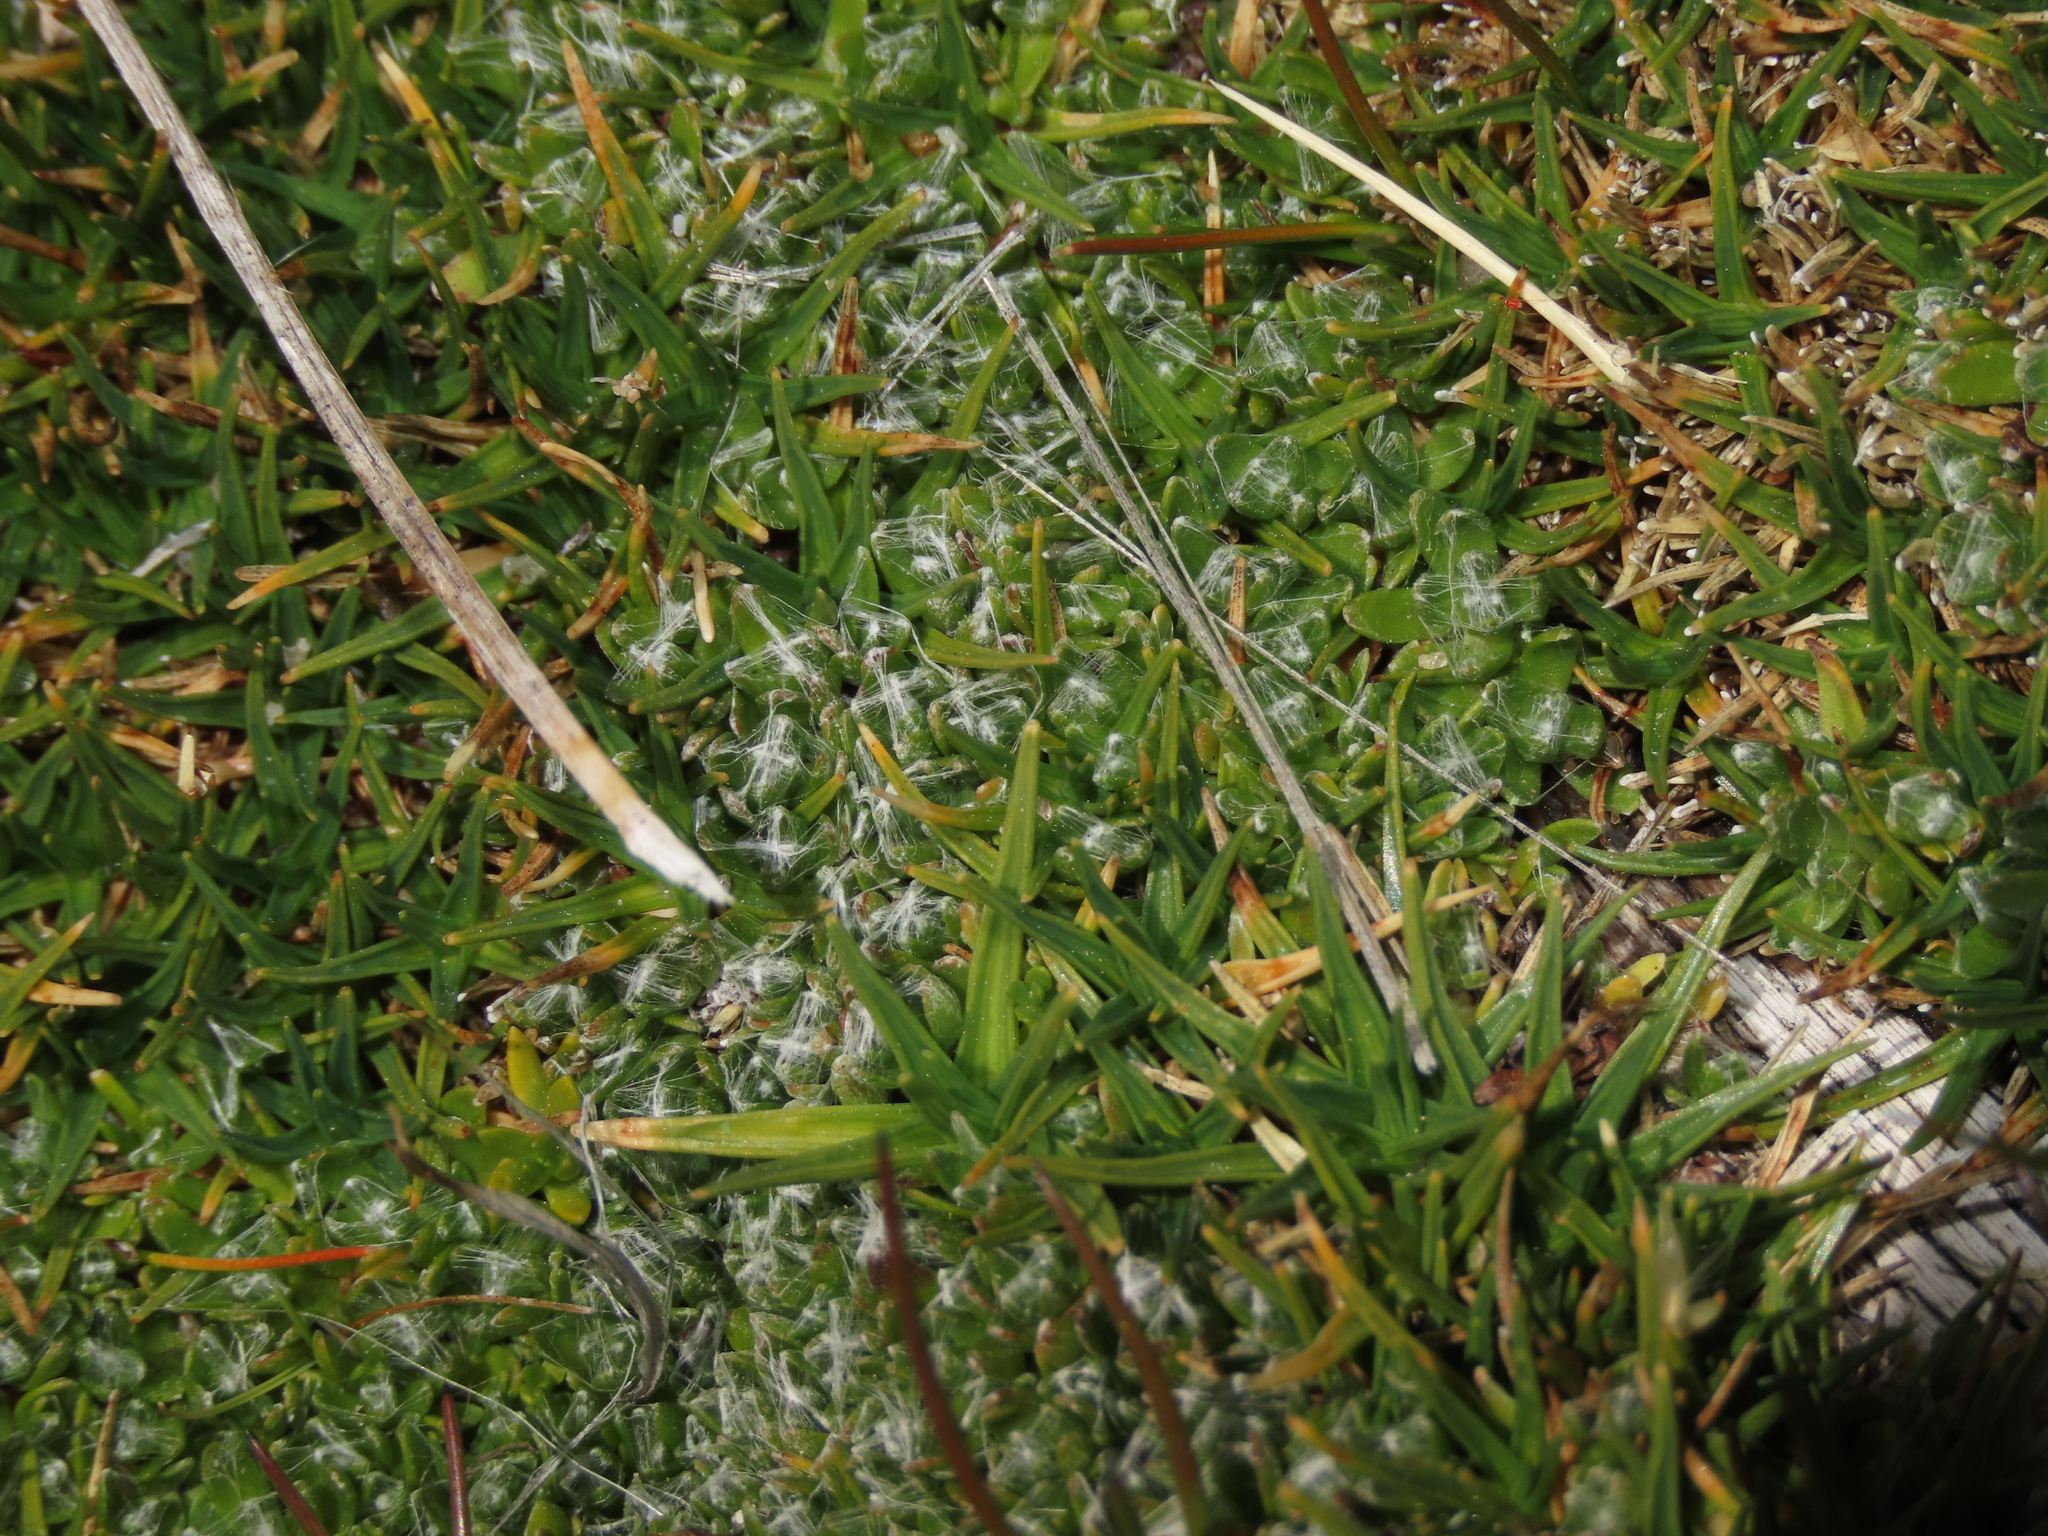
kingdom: Plantae
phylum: Tracheophyta
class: Magnoliopsida
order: Asterales
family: Asteraceae
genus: Cuatrecasasiella
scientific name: Cuatrecasasiella argentina
